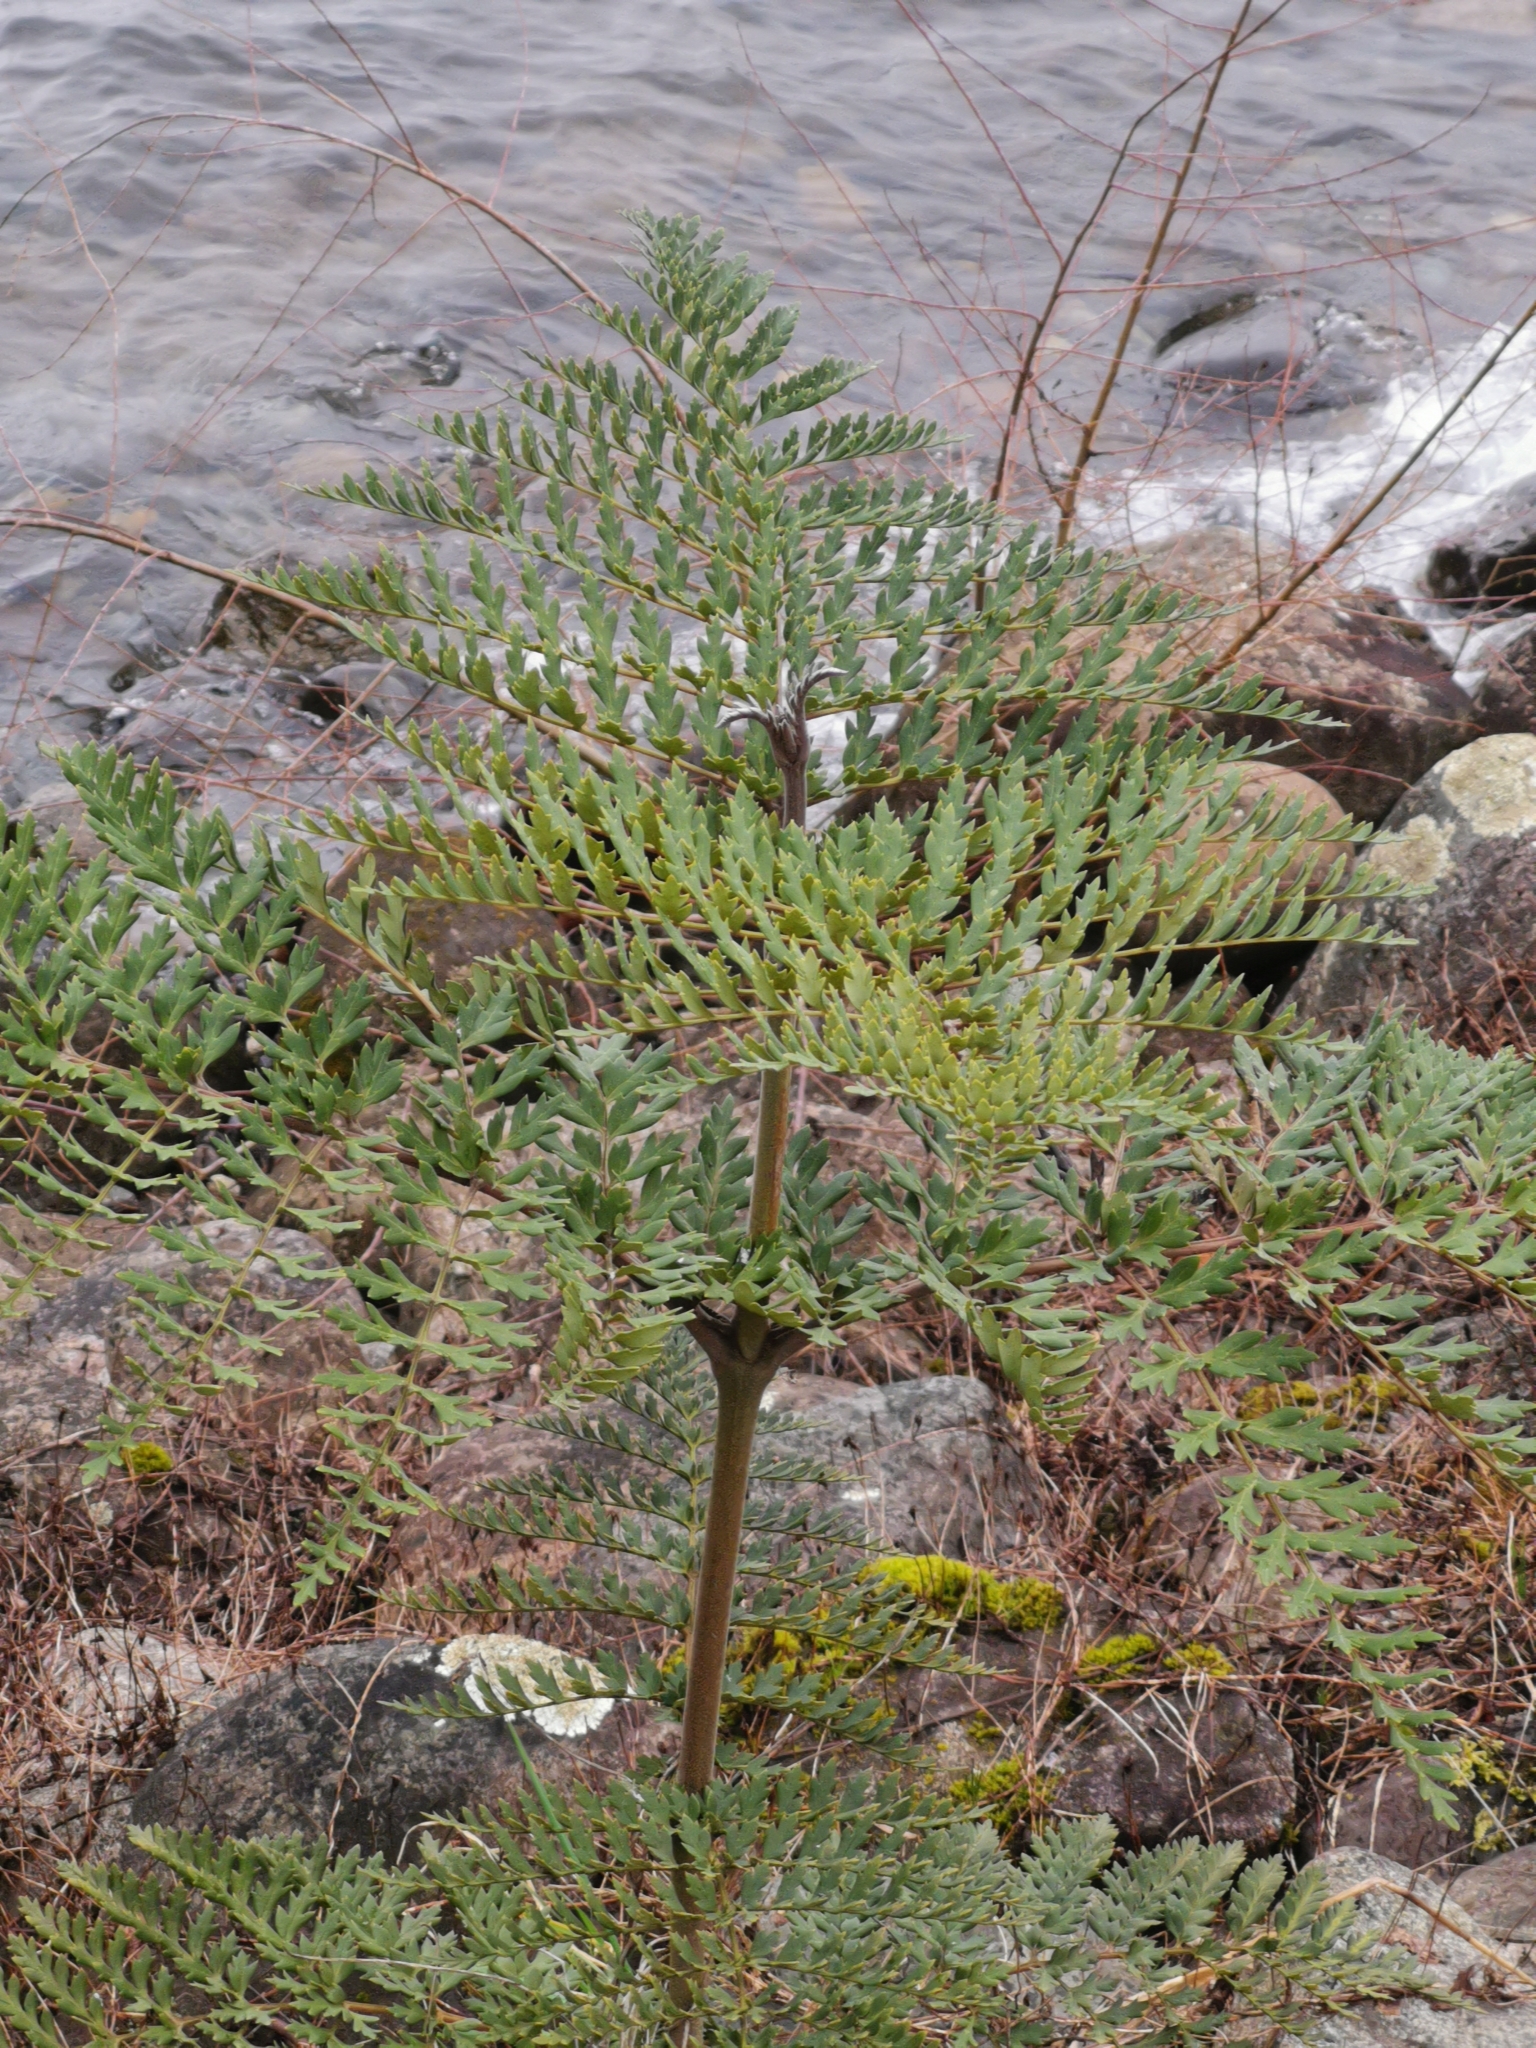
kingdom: Plantae
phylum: Tracheophyta
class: Magnoliopsida
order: Proteales
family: Proteaceae
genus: Lomatia
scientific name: Lomatia ferruginea
